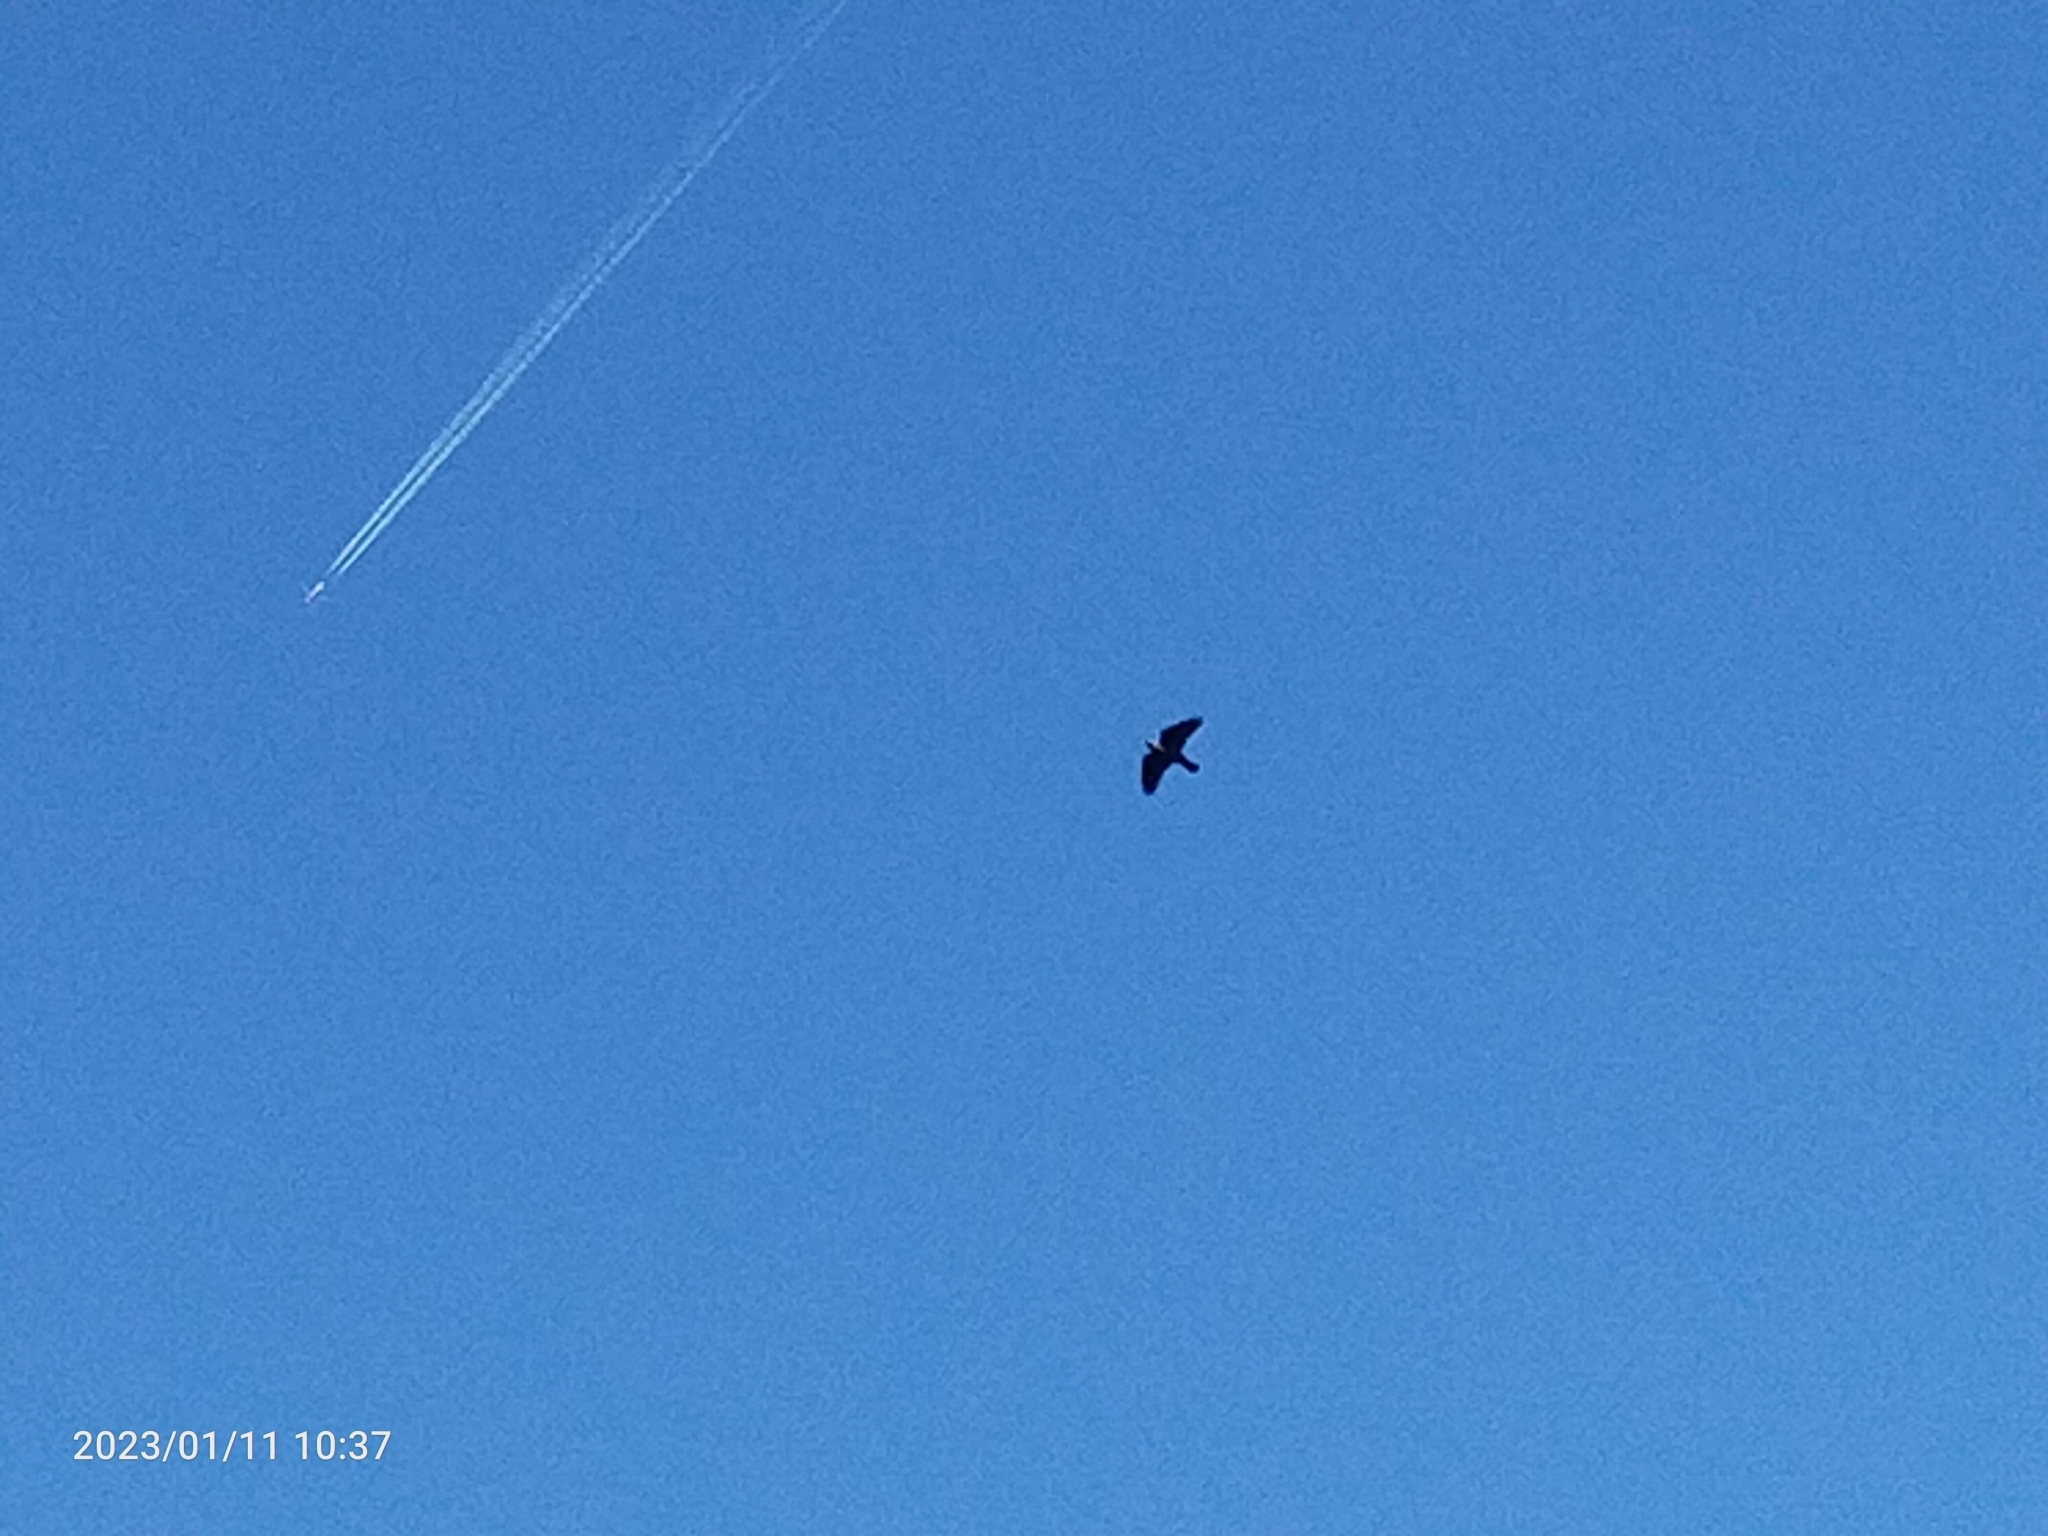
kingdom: Animalia
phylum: Chordata
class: Aves
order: Passeriformes
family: Corvidae
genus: Coloeus
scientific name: Coloeus monedula
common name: Western jackdaw
